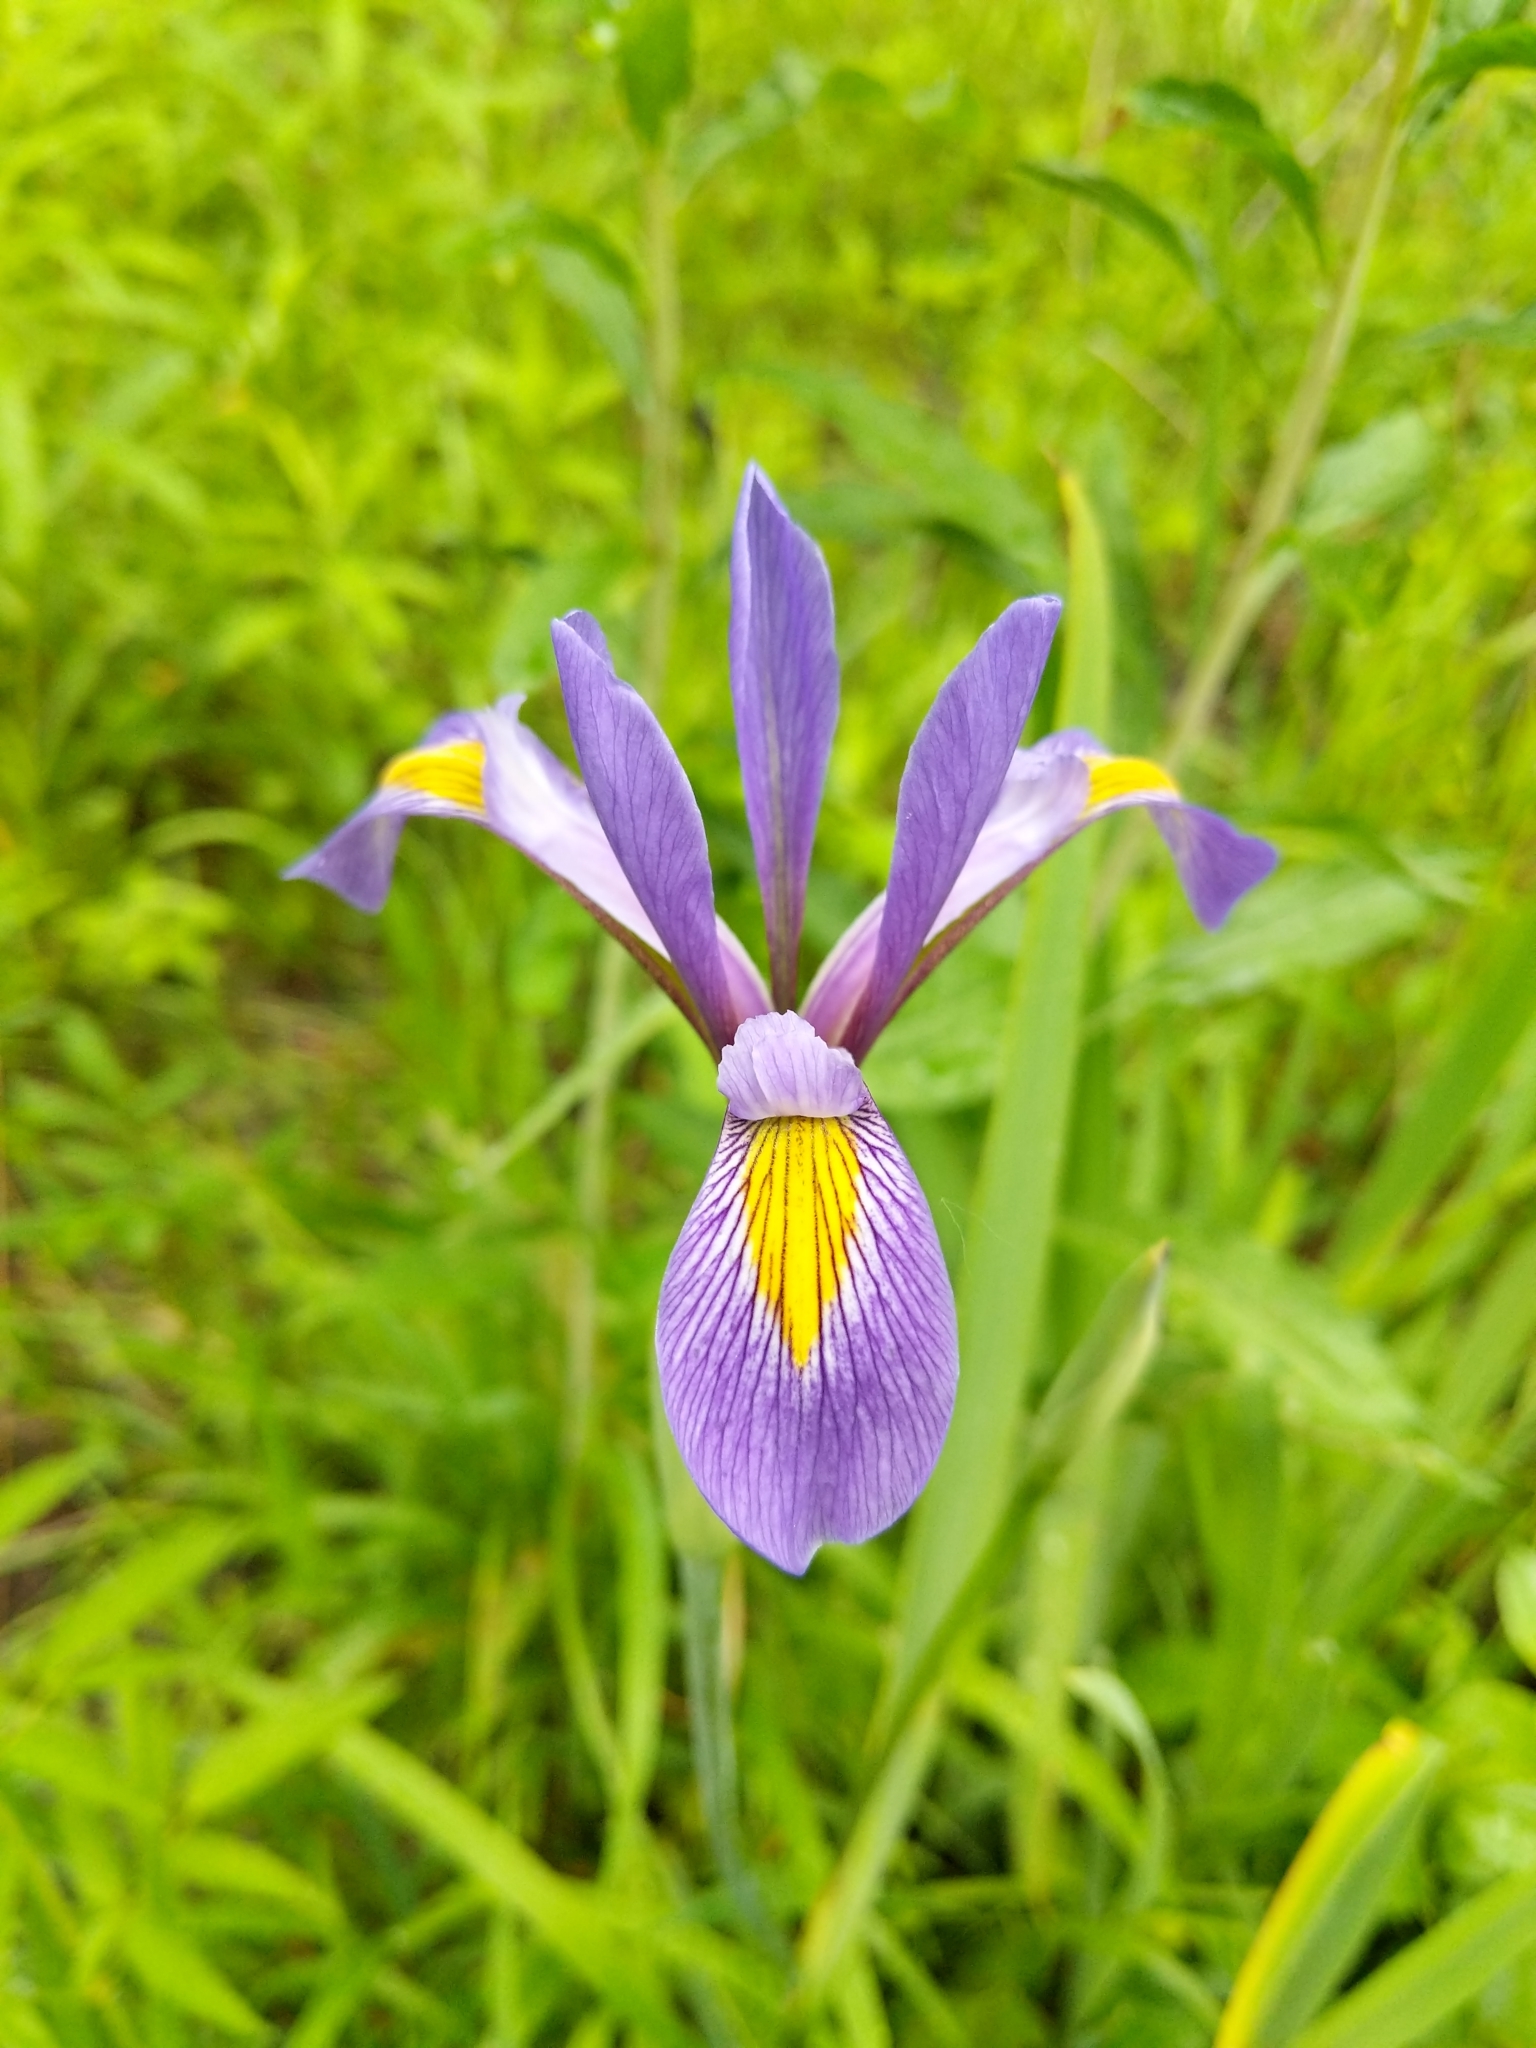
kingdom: Plantae
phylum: Tracheophyta
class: Liliopsida
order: Asparagales
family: Iridaceae
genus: Iris
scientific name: Iris virginica
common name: Southern blue flag
